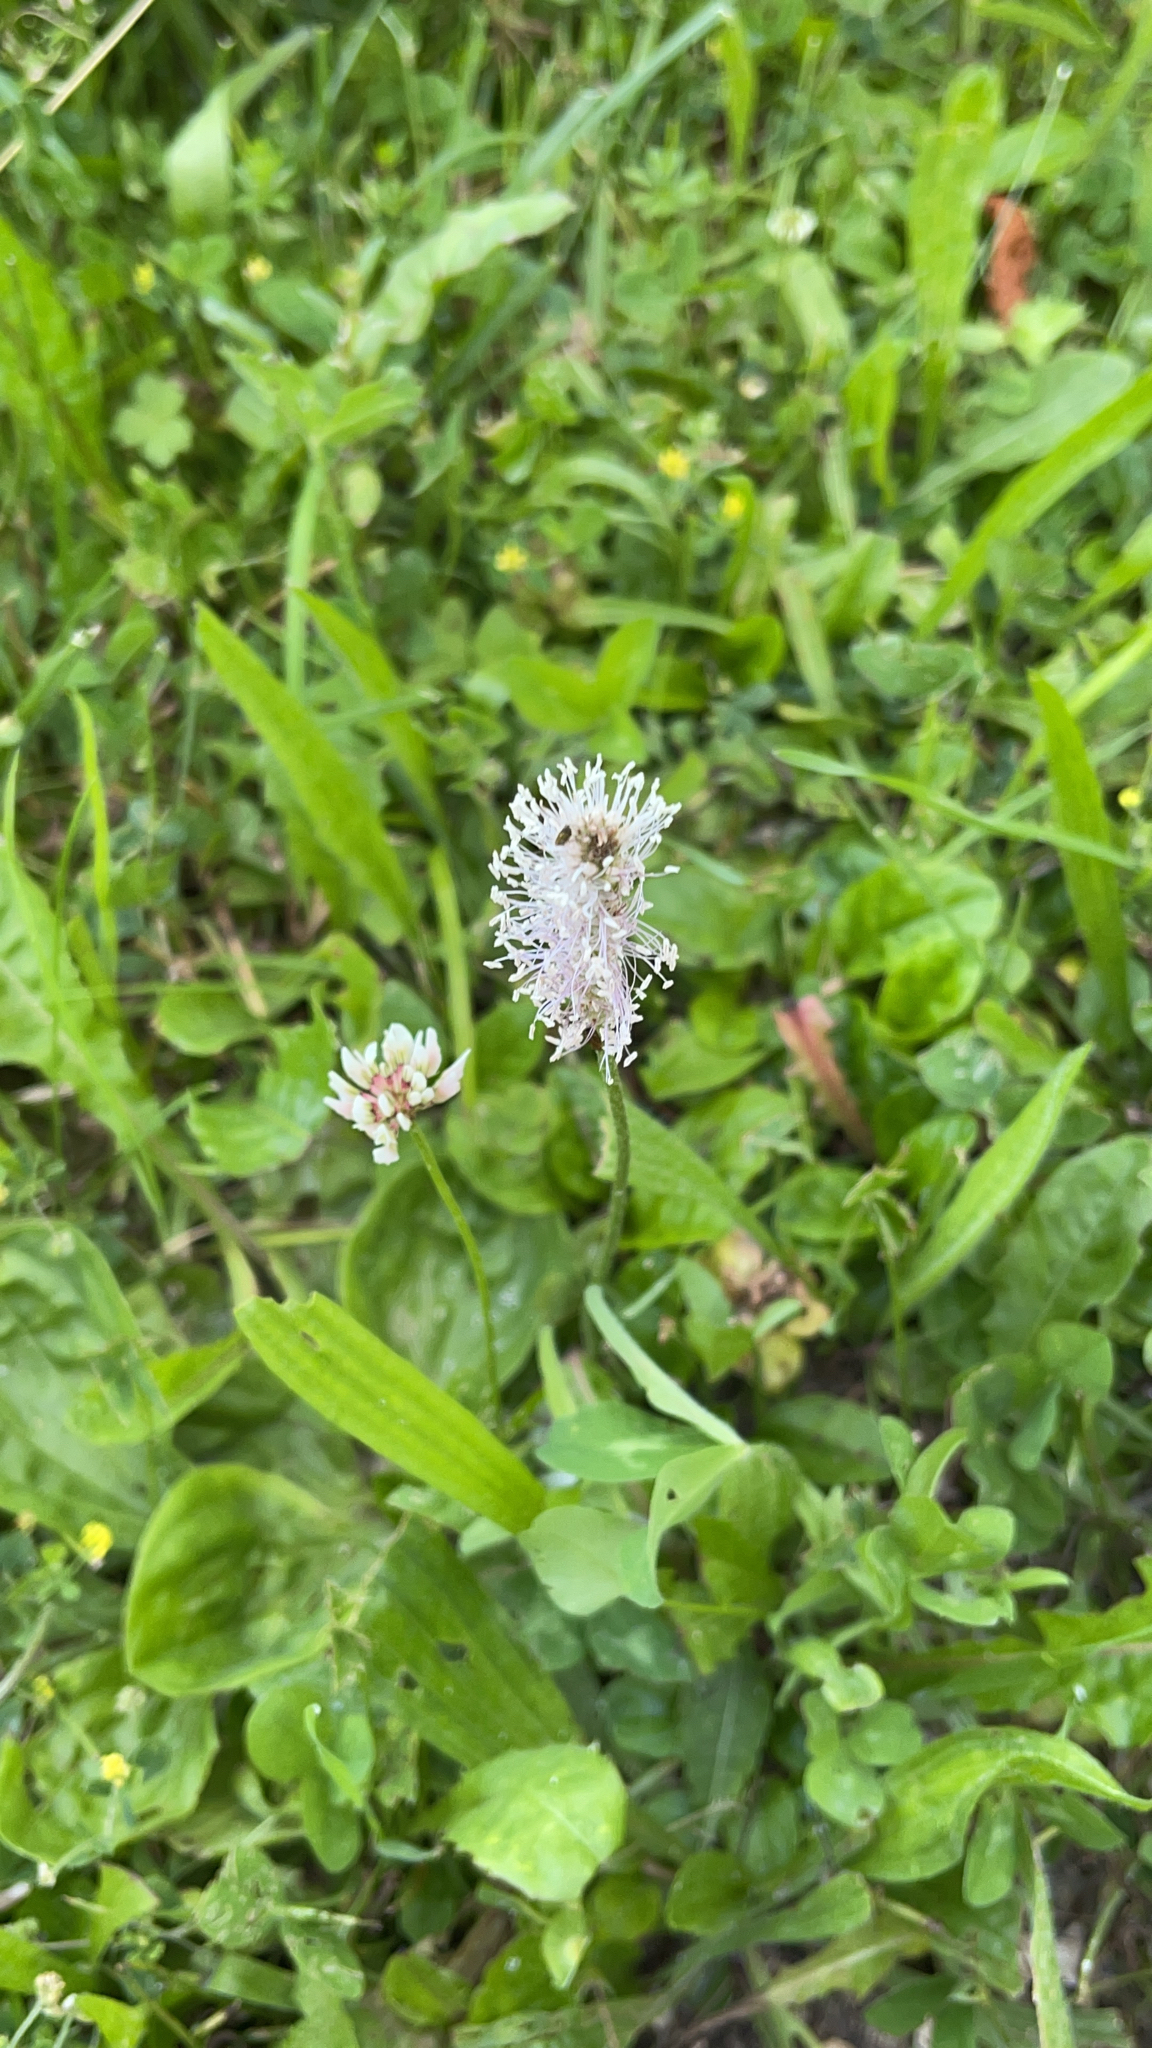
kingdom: Plantae
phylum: Tracheophyta
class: Magnoliopsida
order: Lamiales
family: Plantaginaceae
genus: Plantago
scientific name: Plantago media
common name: Hoary plantain
